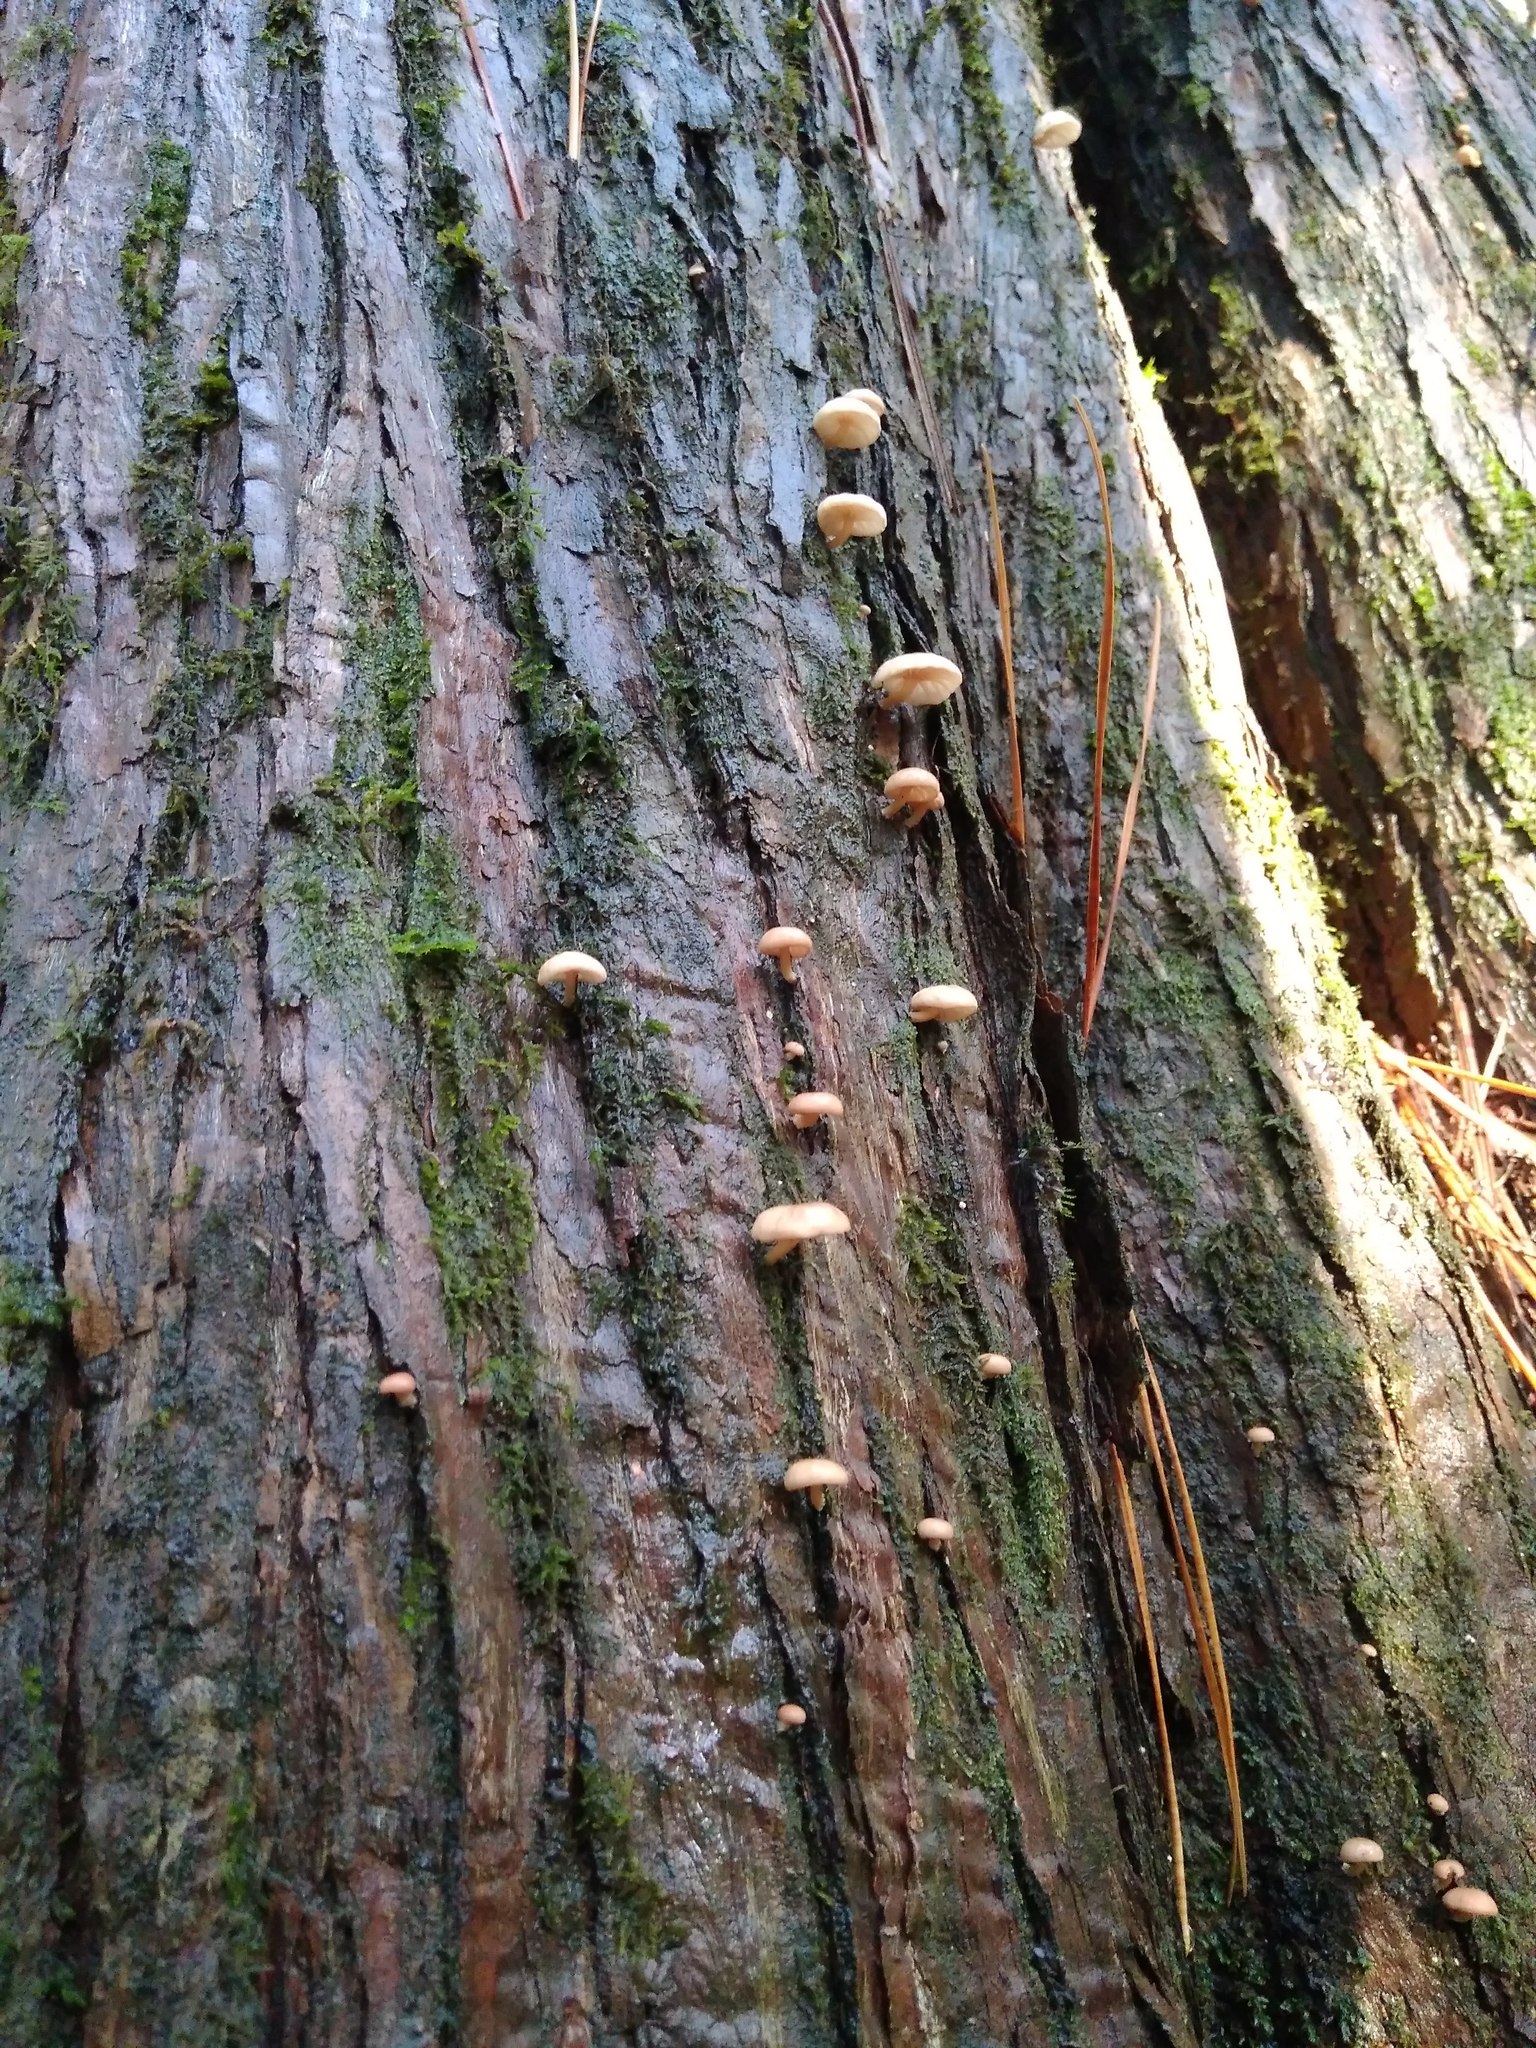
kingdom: Fungi
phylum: Basidiomycota
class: Agaricomycetes
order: Agaricales
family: Omphalotaceae
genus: Marasmiellus
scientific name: Marasmiellus alliiodorus
